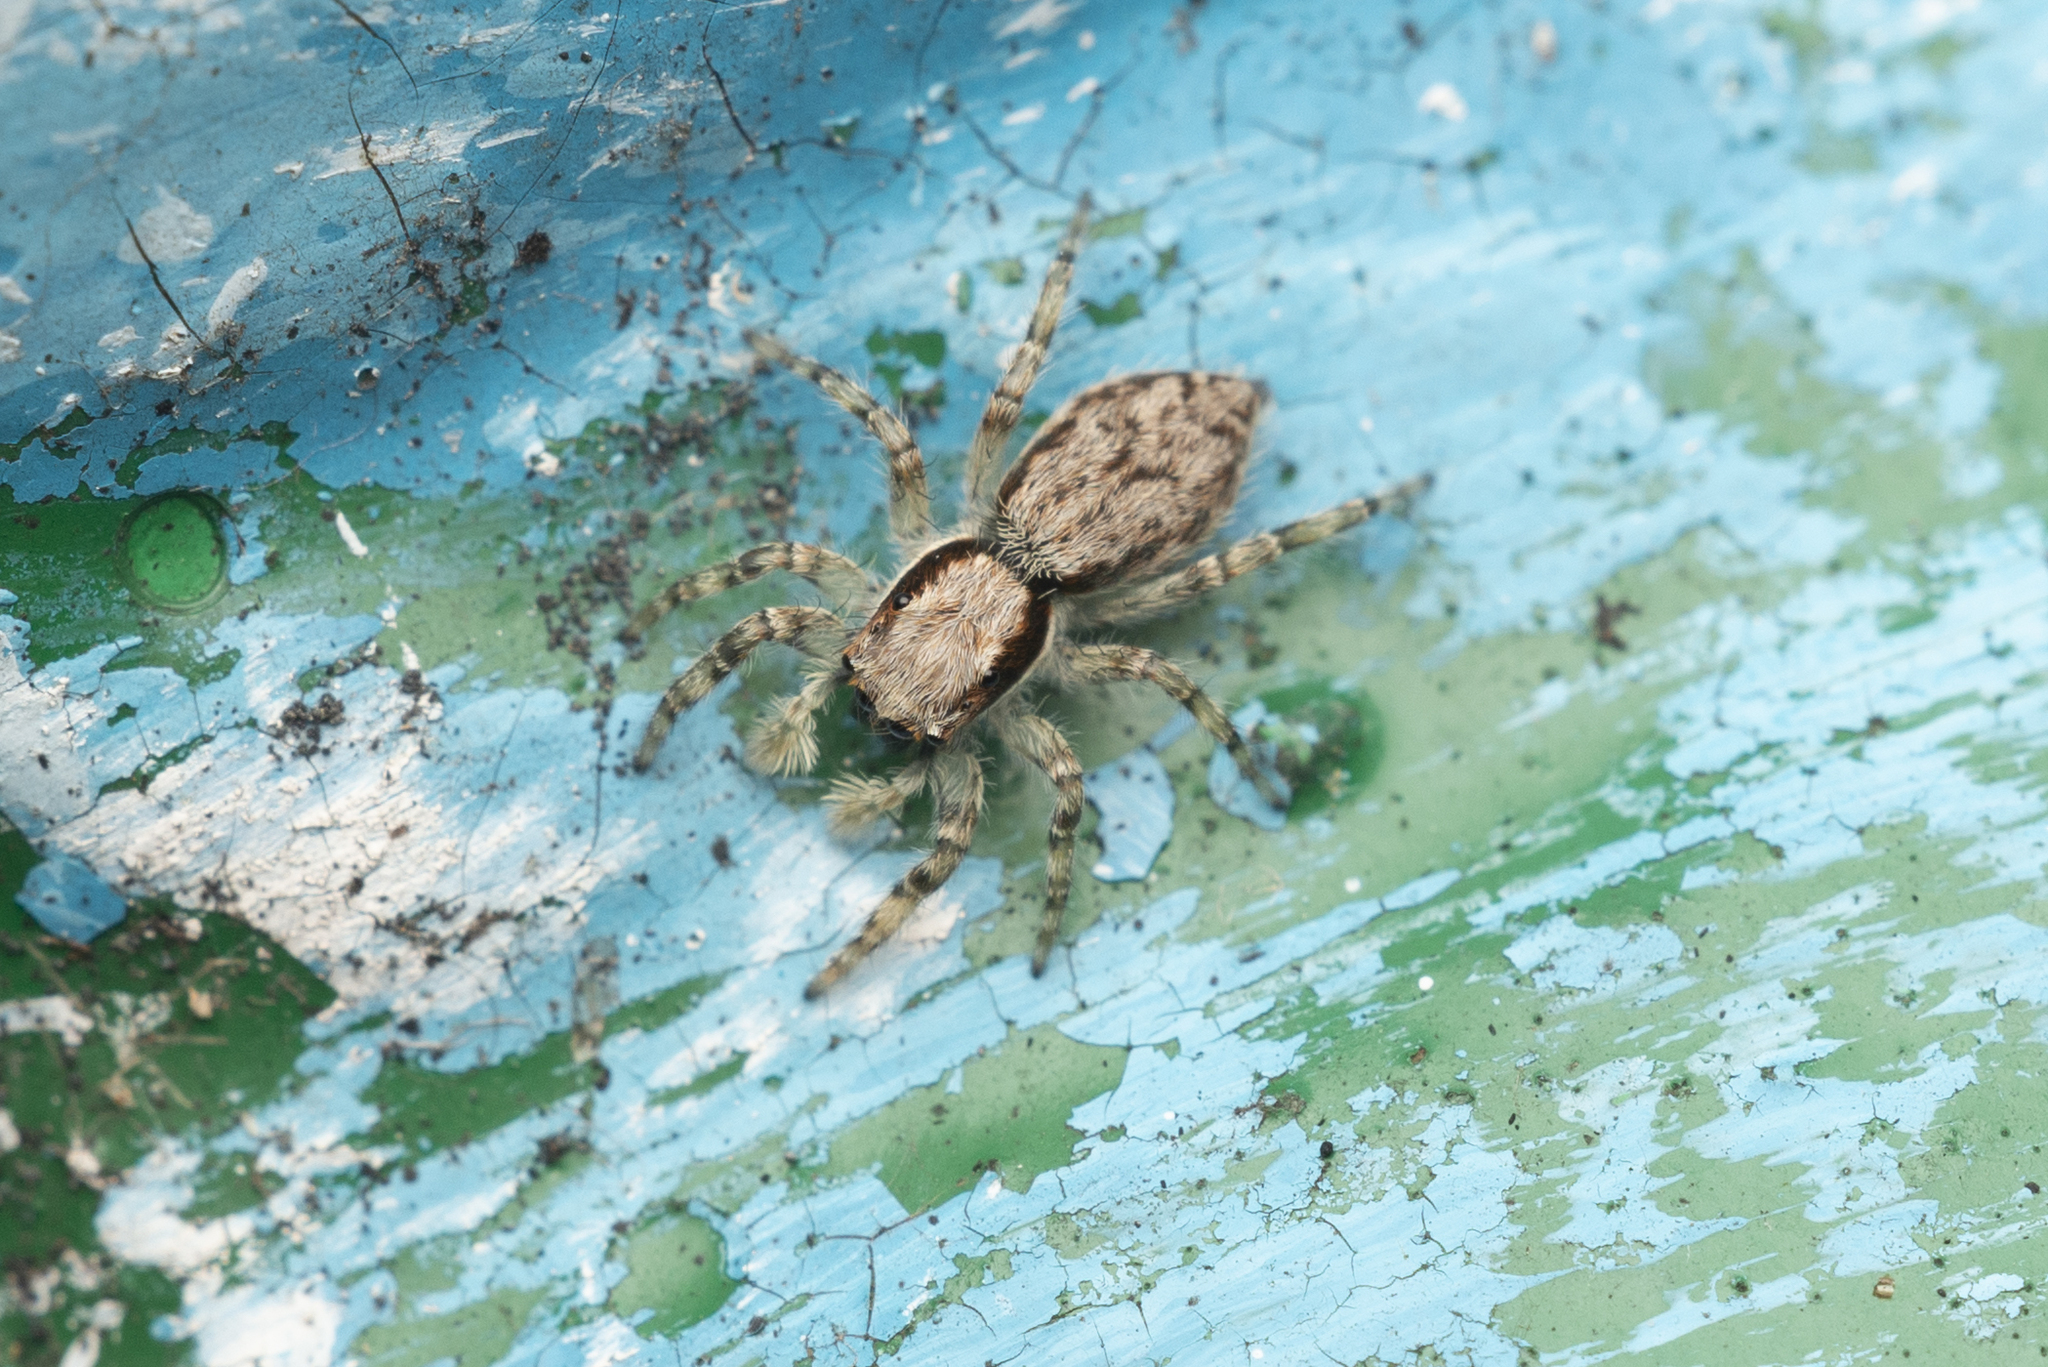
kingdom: Animalia
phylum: Arthropoda
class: Arachnida
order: Araneae
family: Salticidae
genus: Menemerus
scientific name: Menemerus bivittatus
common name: Gray wall jumper
